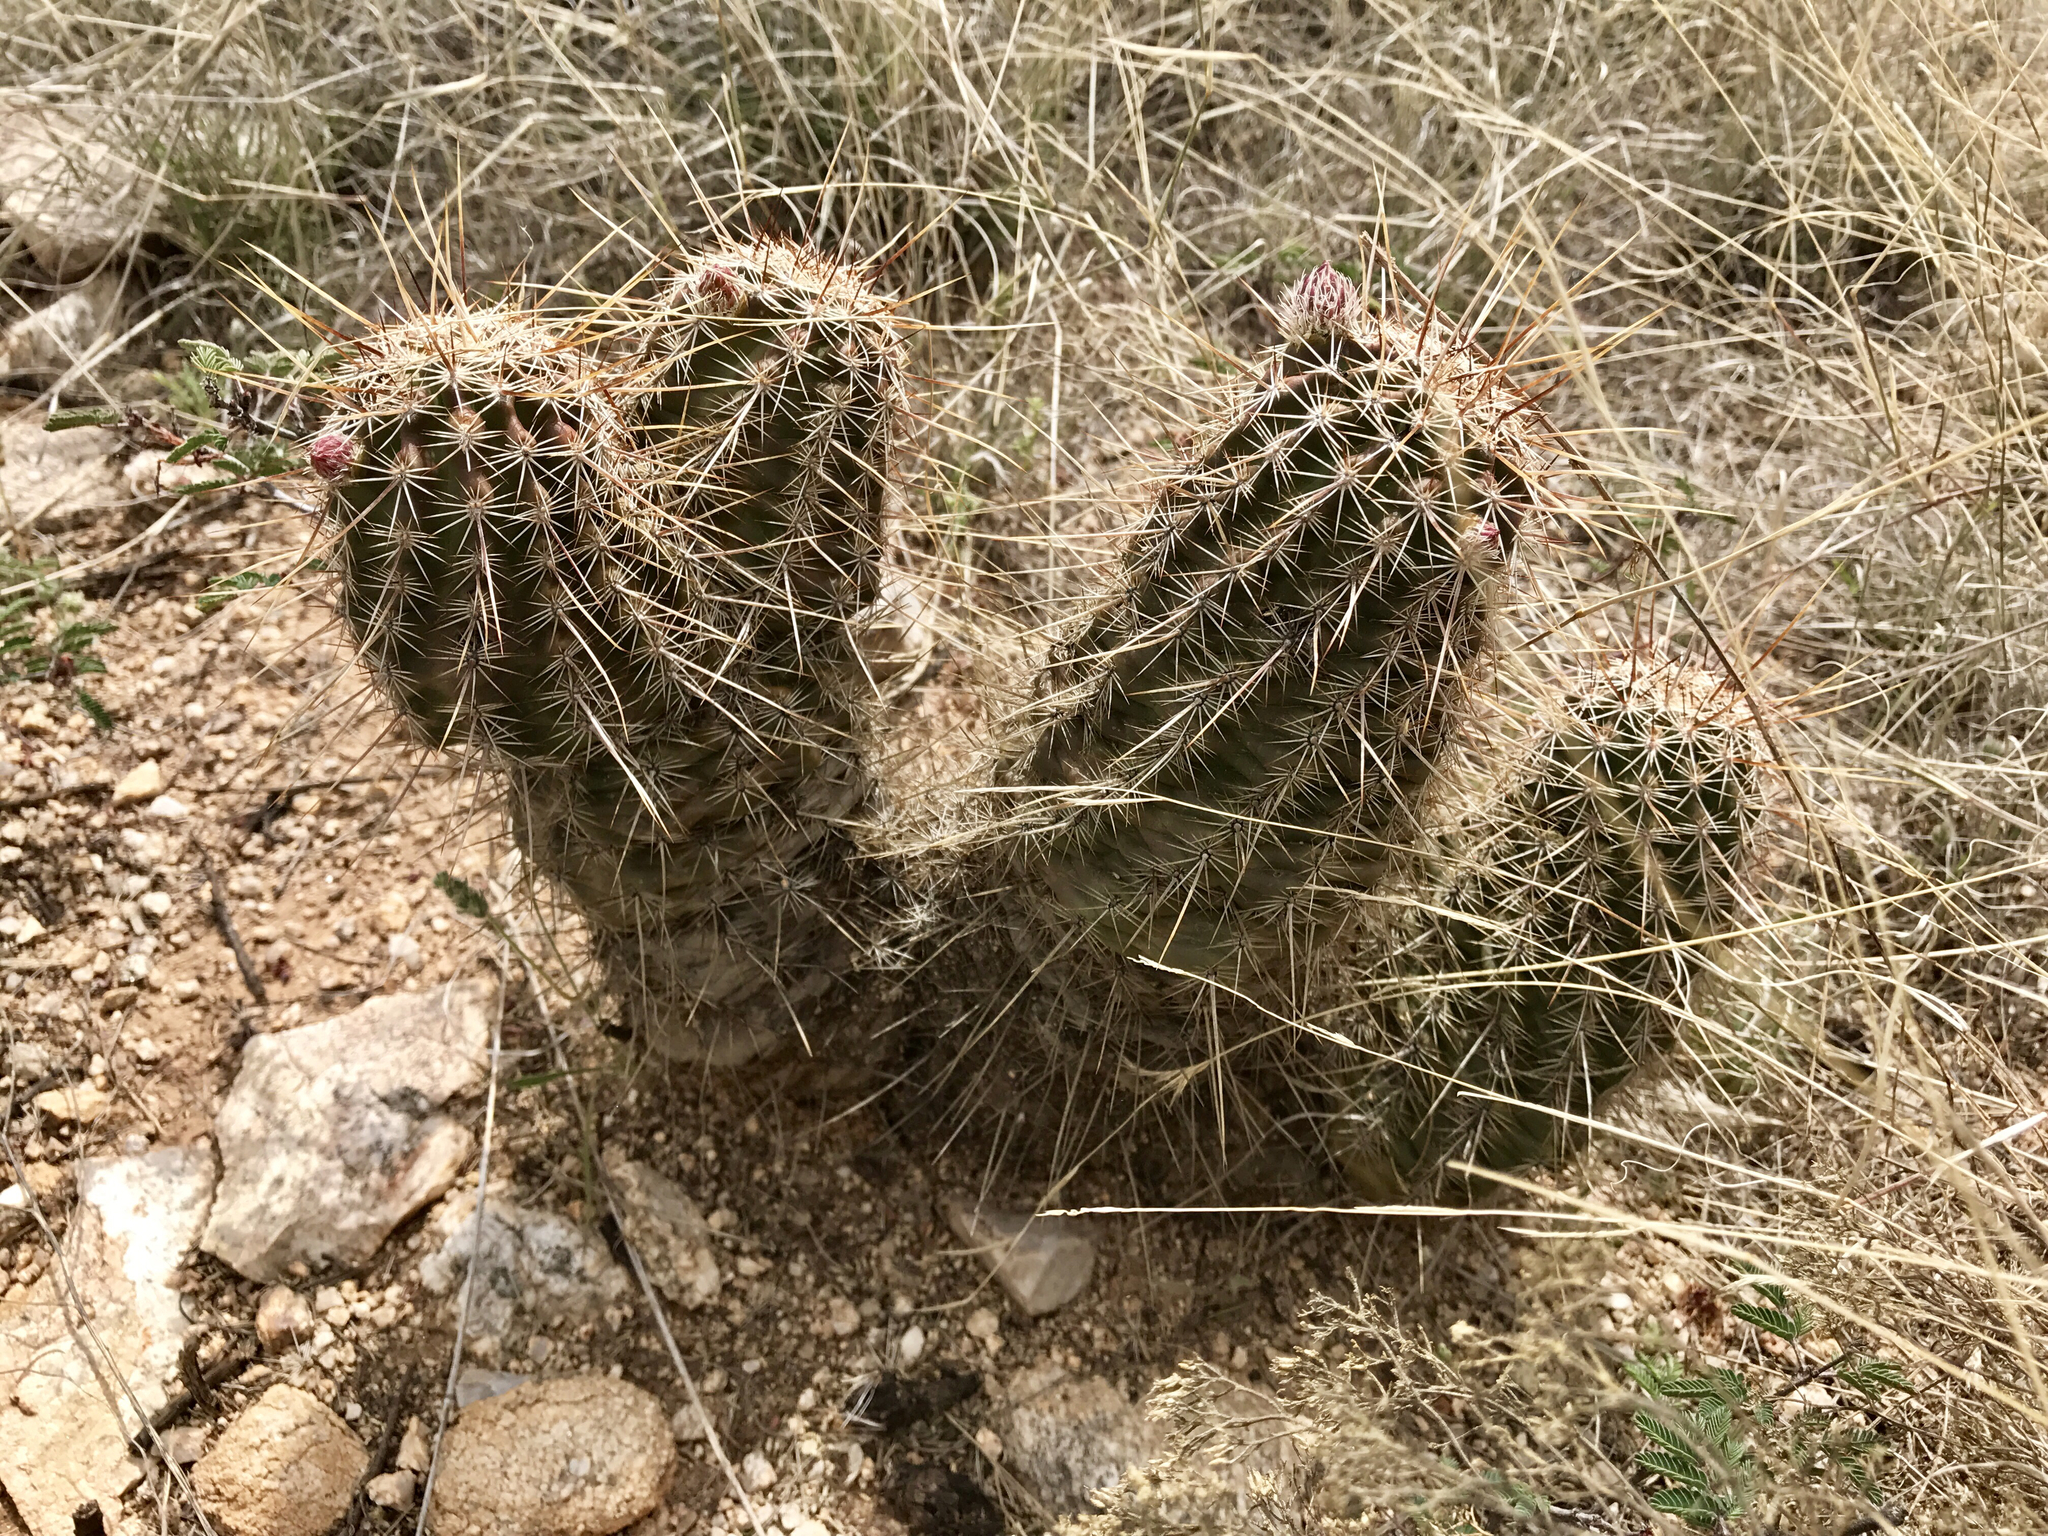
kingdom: Plantae
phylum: Tracheophyta
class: Magnoliopsida
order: Caryophyllales
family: Cactaceae
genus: Echinocereus
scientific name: Echinocereus fasciculatus
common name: Bundle hedgehog
